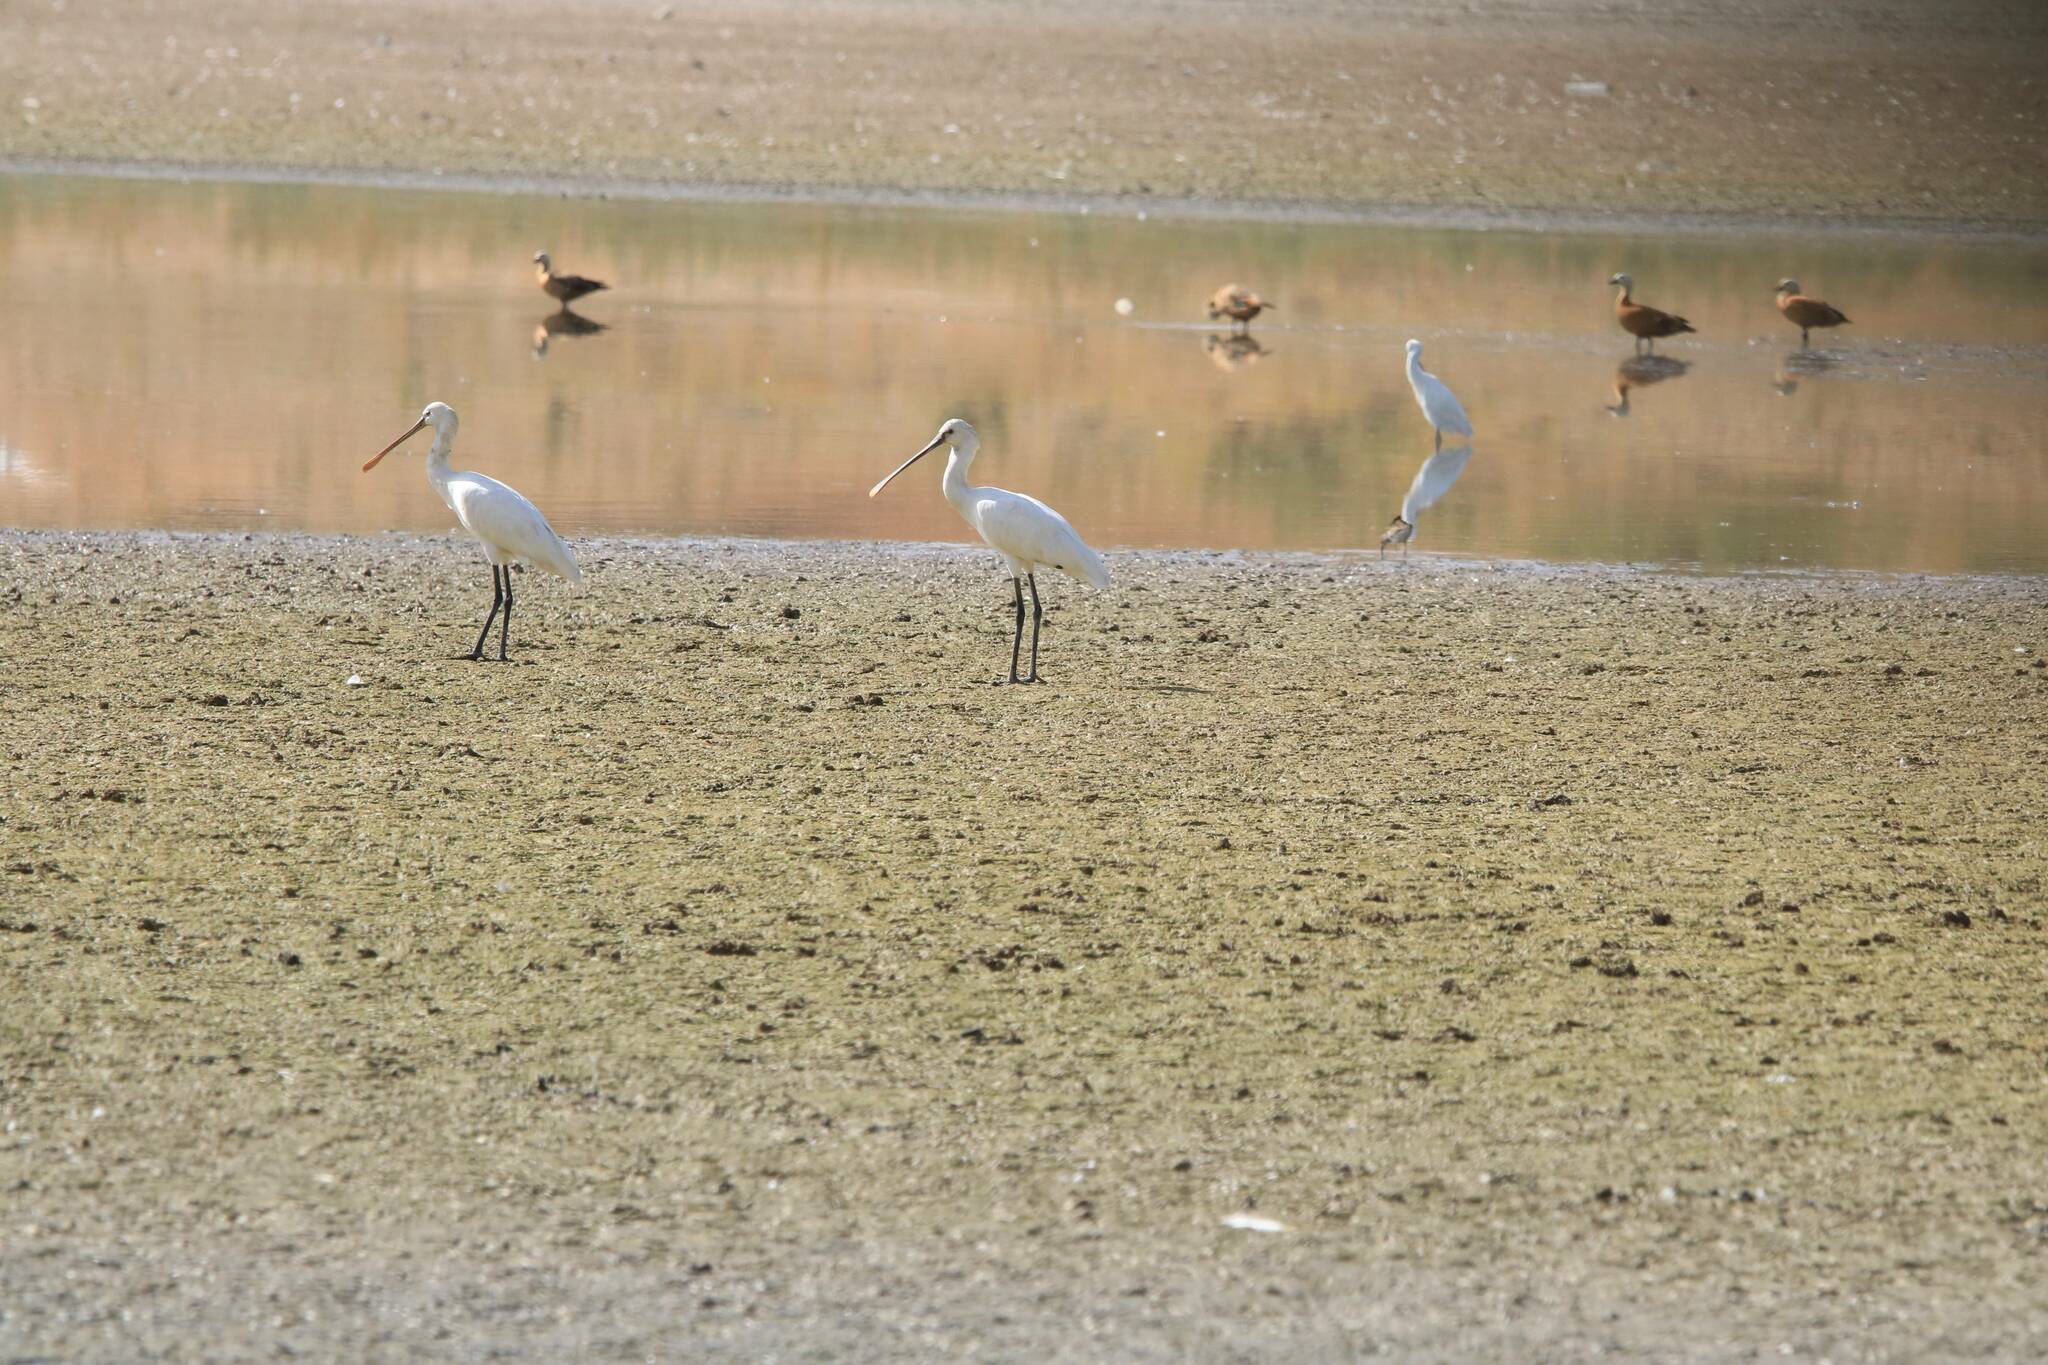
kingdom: Animalia
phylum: Chordata
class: Aves
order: Pelecaniformes
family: Threskiornithidae
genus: Platalea
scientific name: Platalea leucorodia
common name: Eurasian spoonbill
